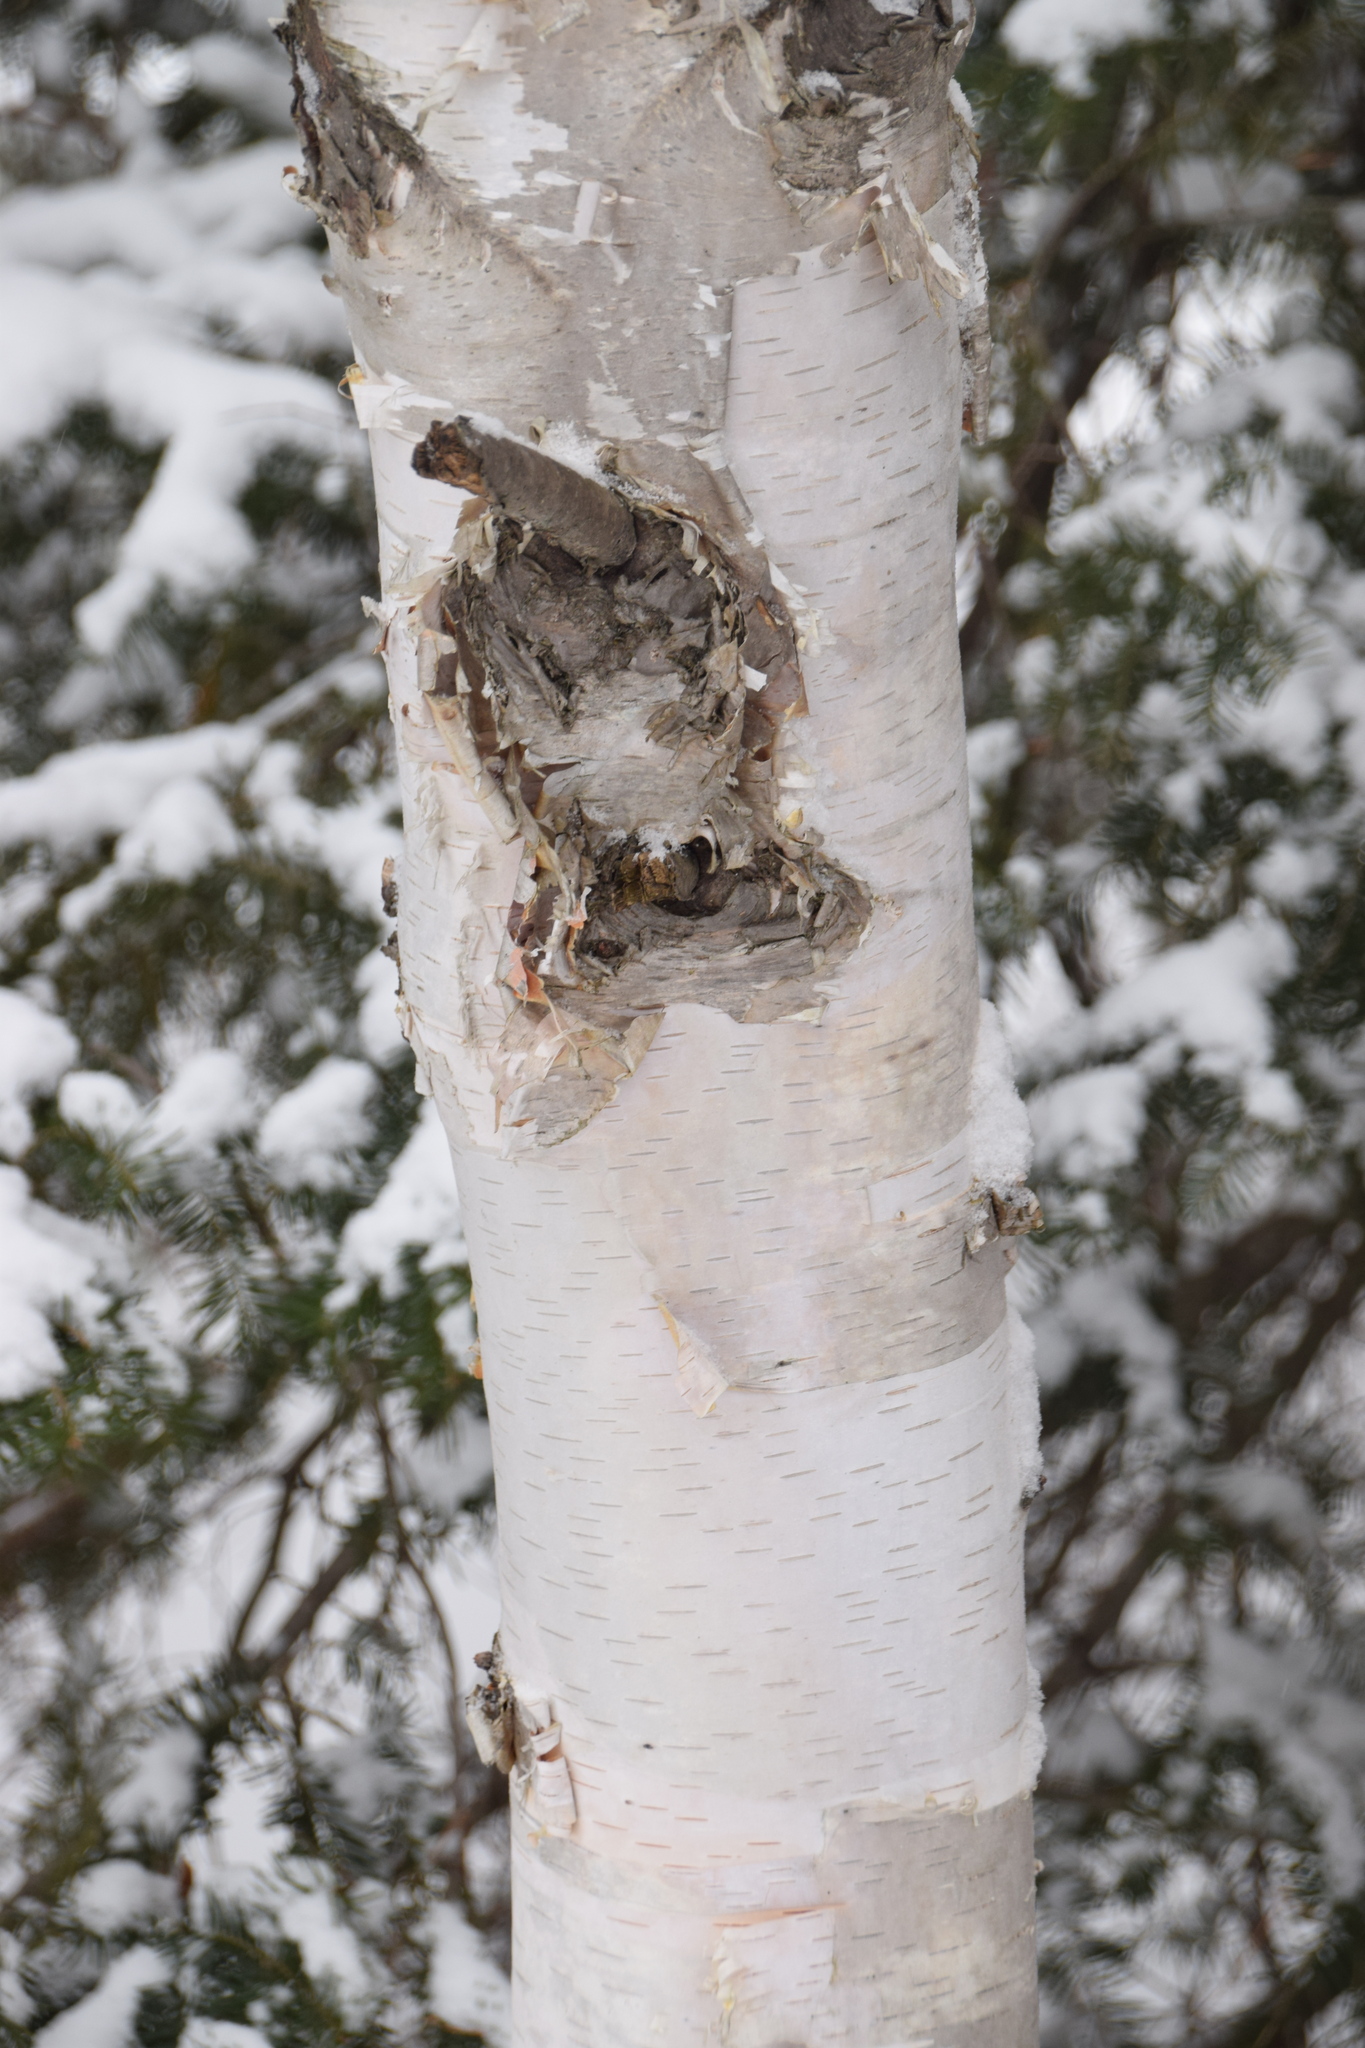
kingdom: Plantae
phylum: Tracheophyta
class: Magnoliopsida
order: Fagales
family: Betulaceae
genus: Betula
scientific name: Betula papyrifera
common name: Paper birch
